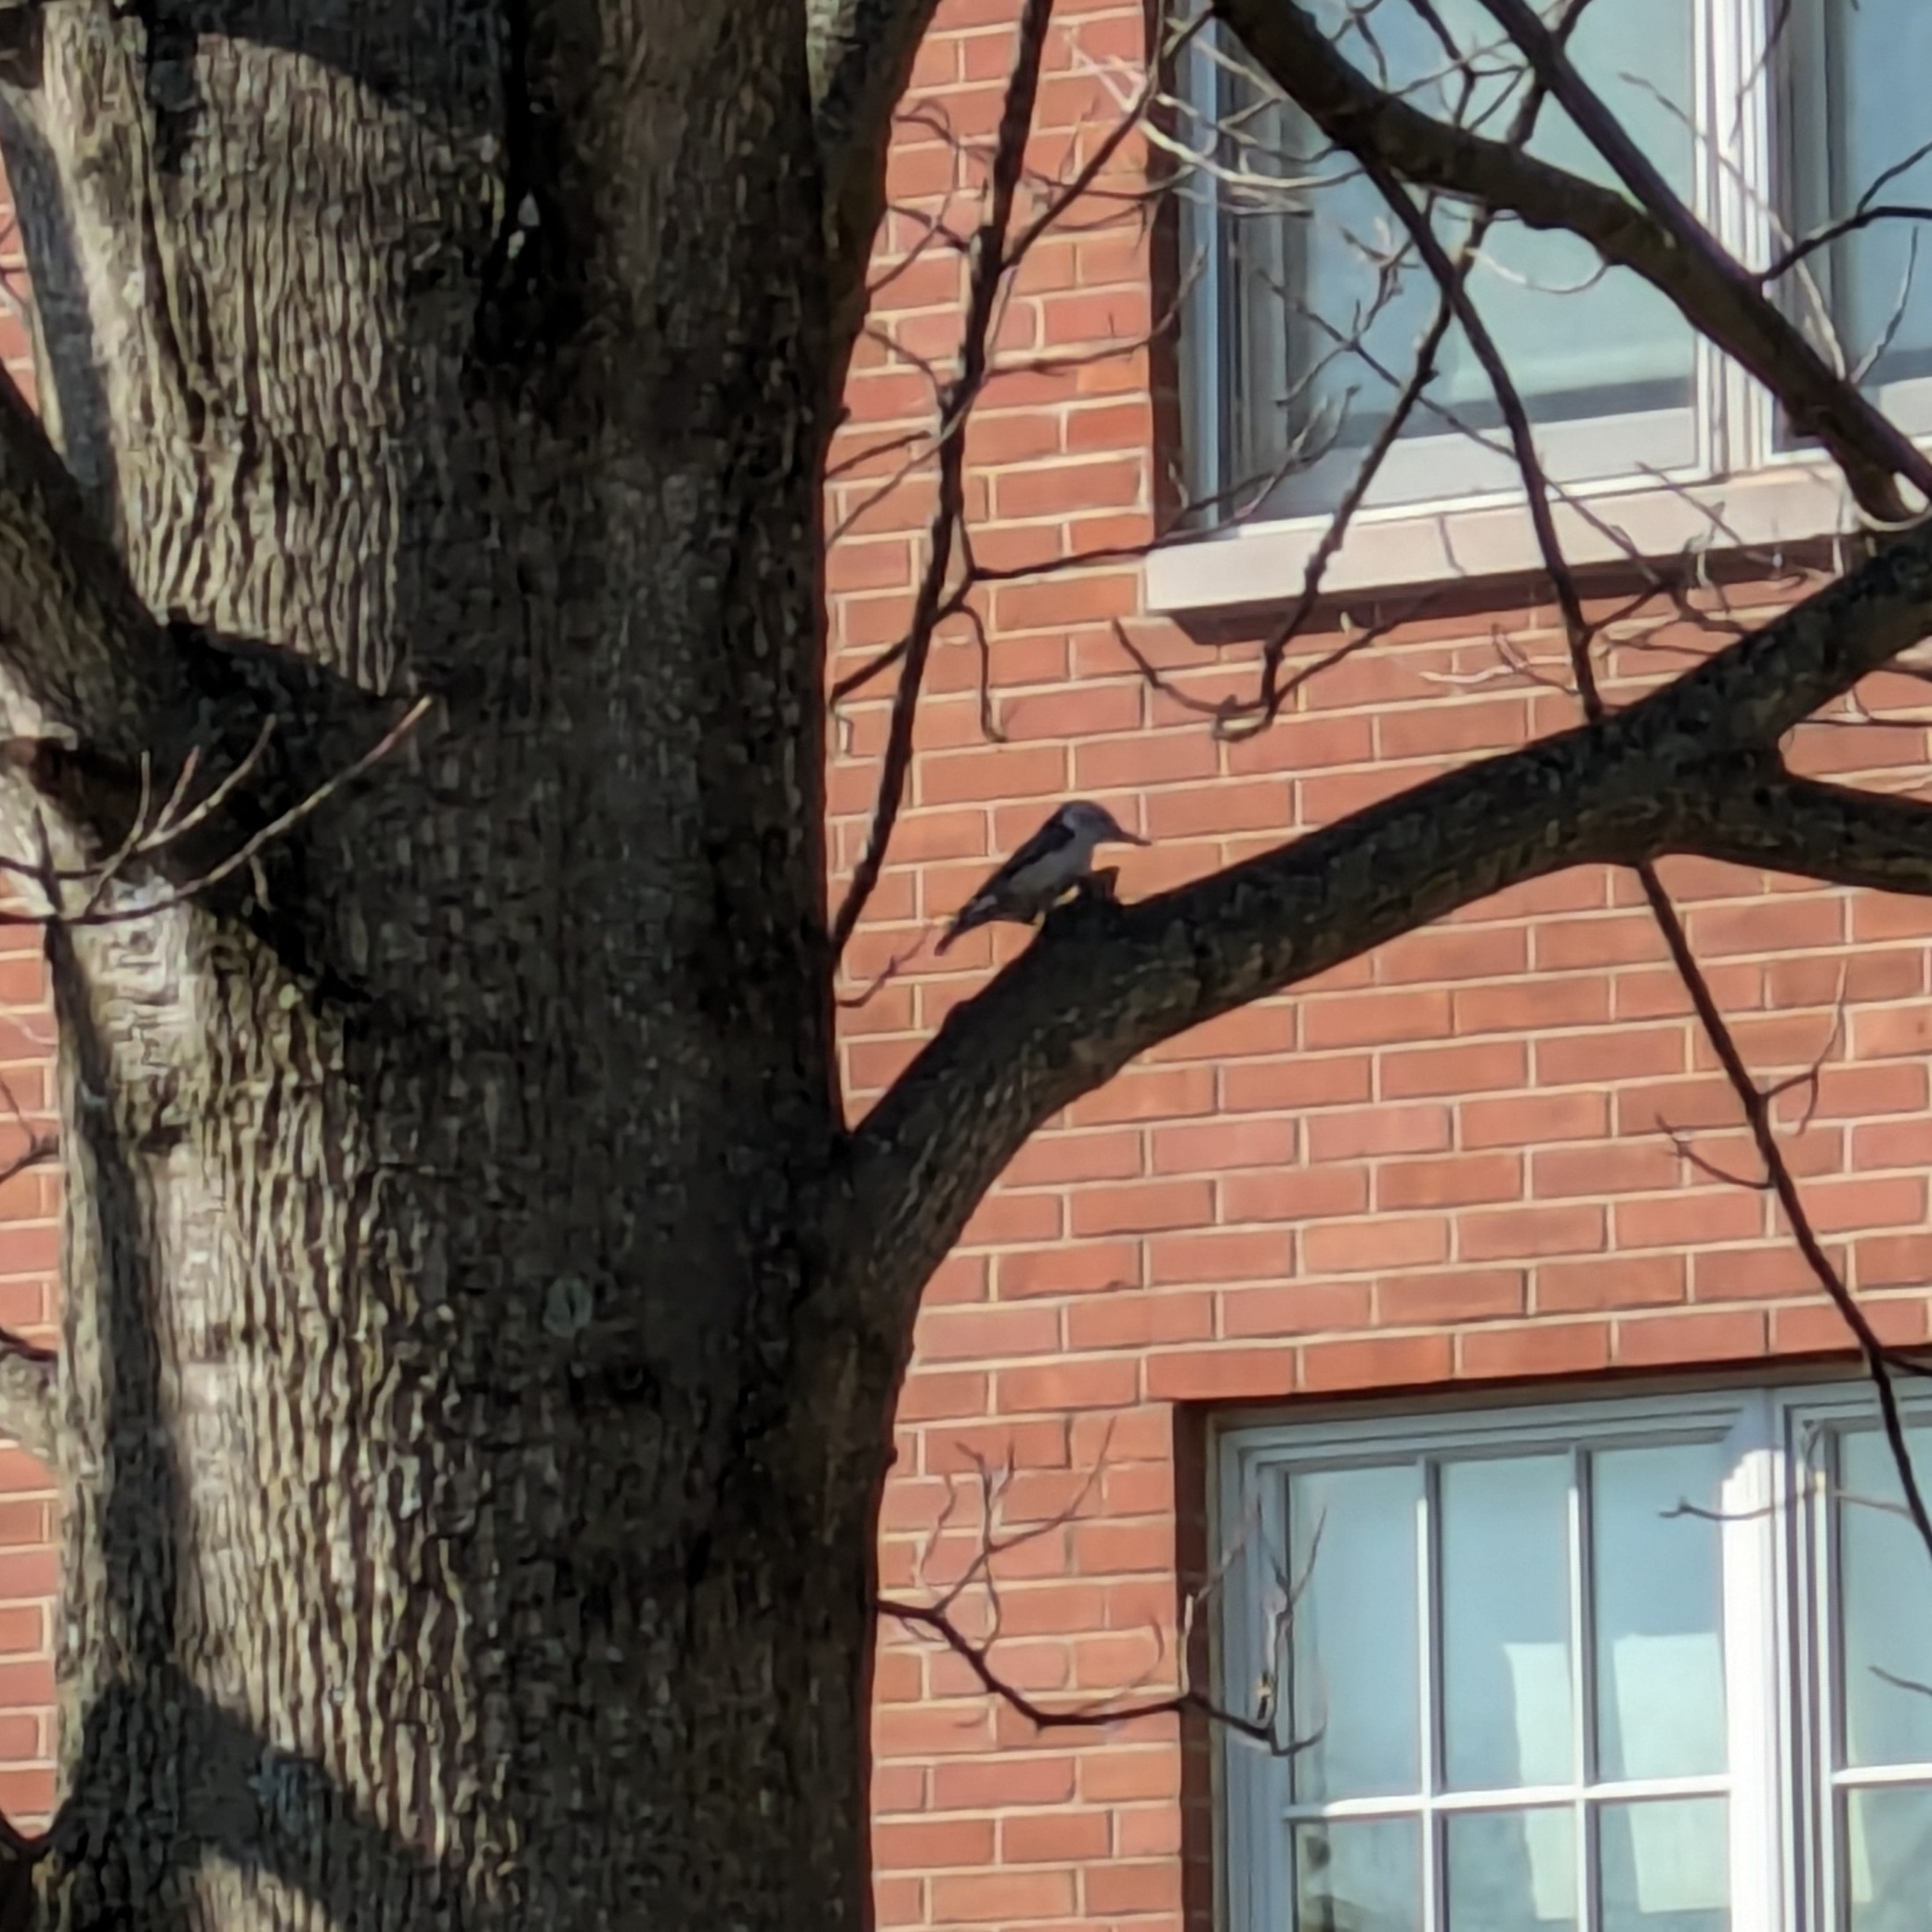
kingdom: Animalia
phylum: Chordata
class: Aves
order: Passeriformes
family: Sittidae
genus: Sitta
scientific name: Sitta carolinensis
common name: White-breasted nuthatch
